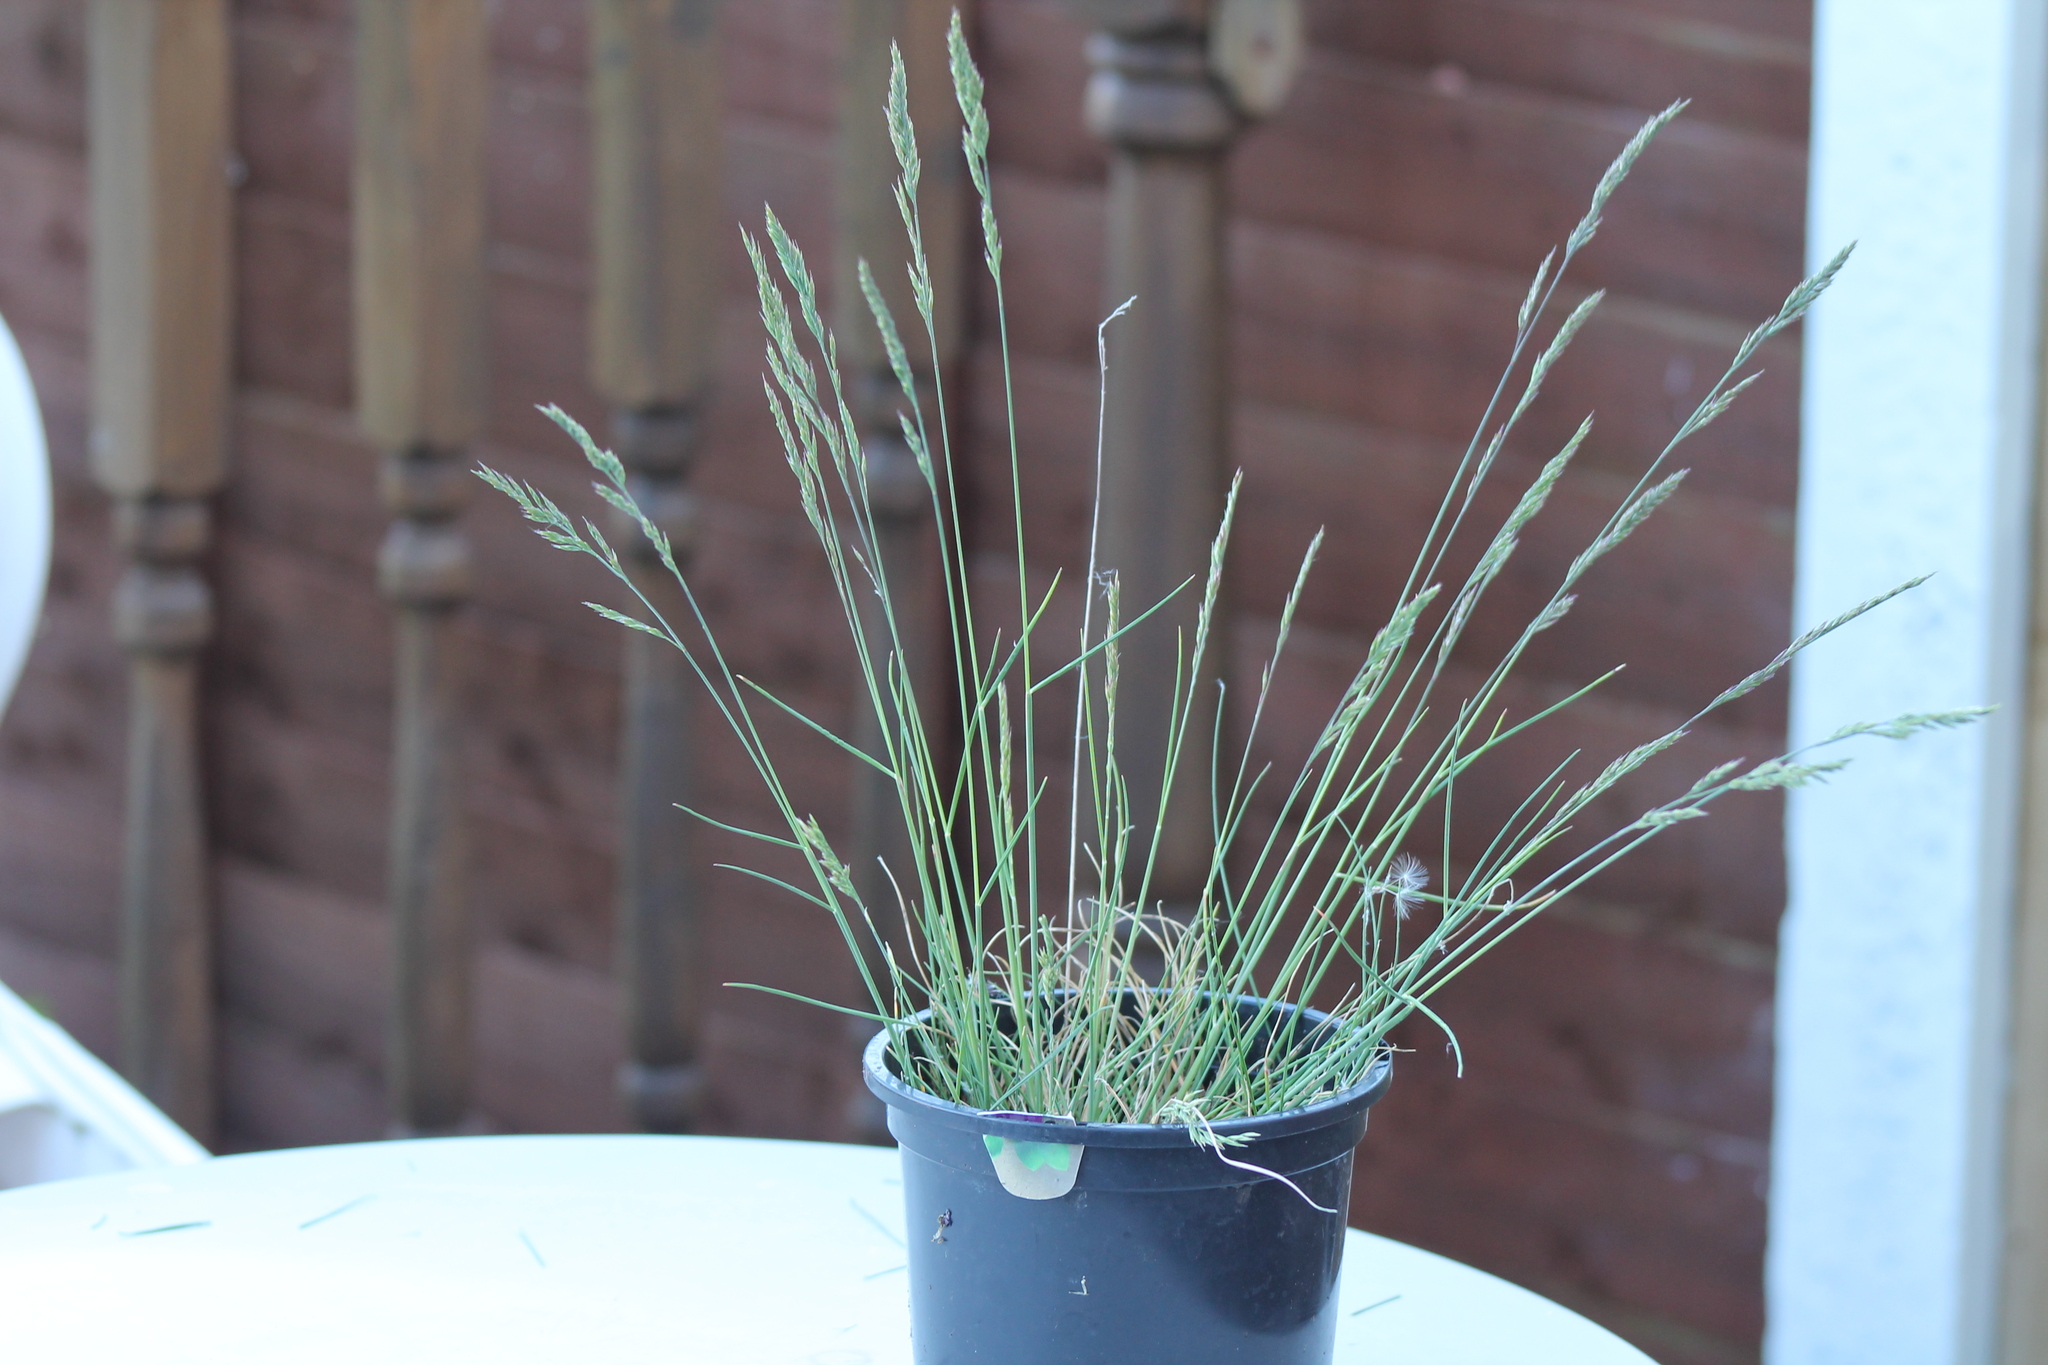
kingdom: Plantae
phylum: Tracheophyta
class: Liliopsida
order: Poales
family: Poaceae
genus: Festuca
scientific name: Festuca
